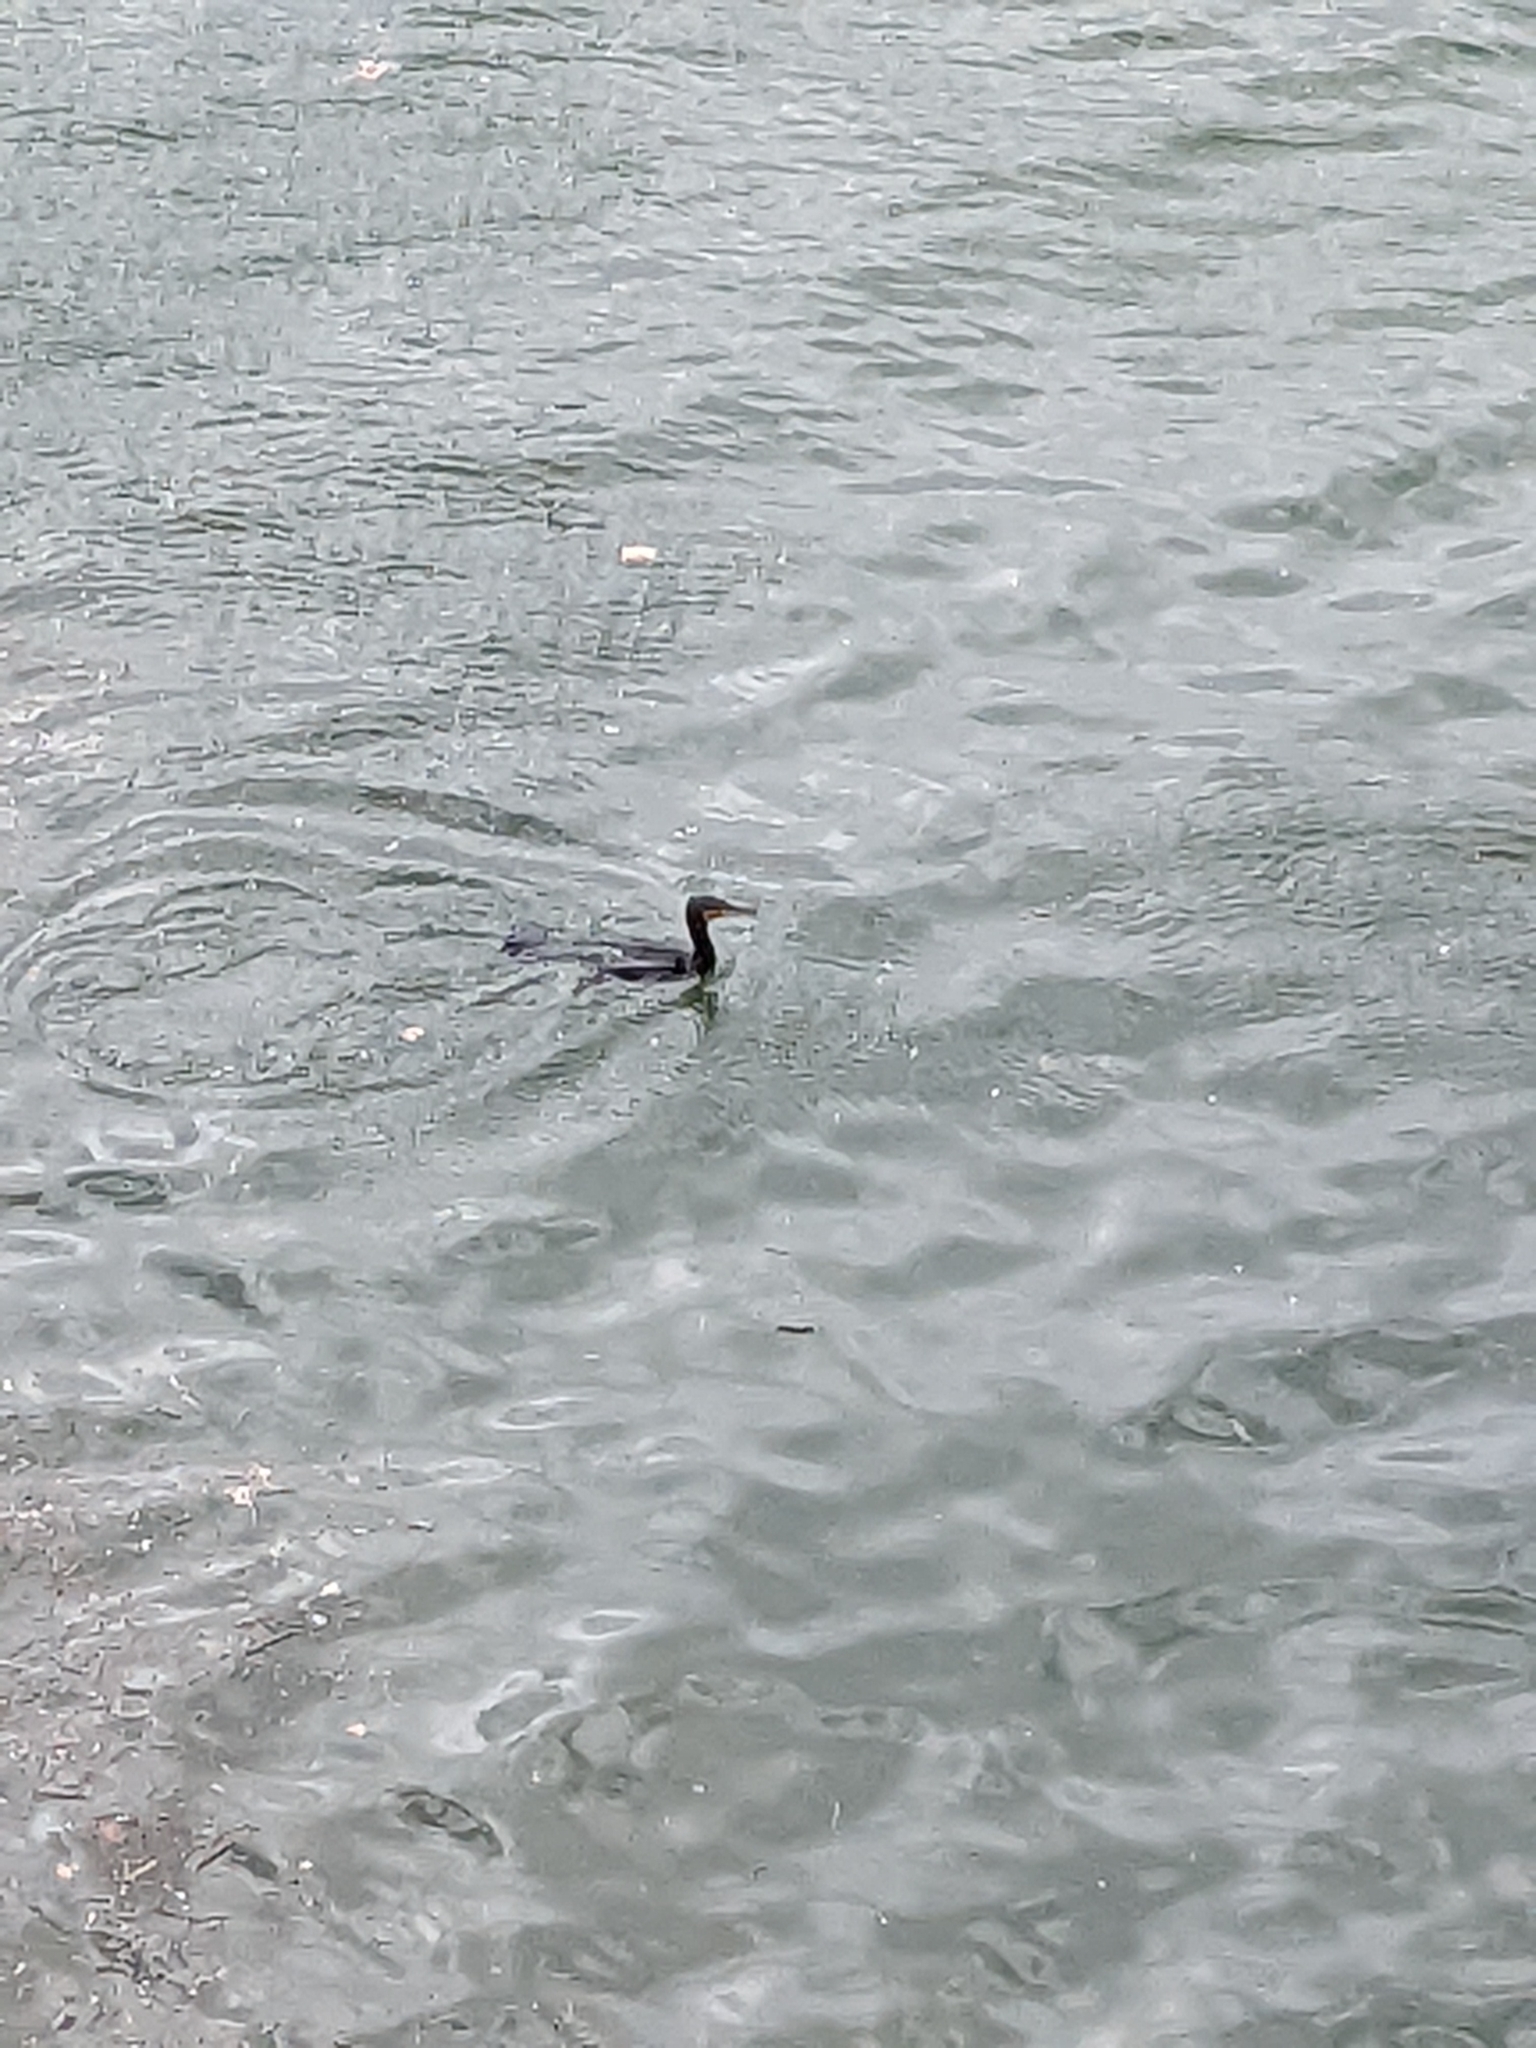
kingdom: Animalia
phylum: Chordata
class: Aves
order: Suliformes
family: Phalacrocoracidae
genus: Phalacrocorax
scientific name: Phalacrocorax carbo
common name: Great cormorant
